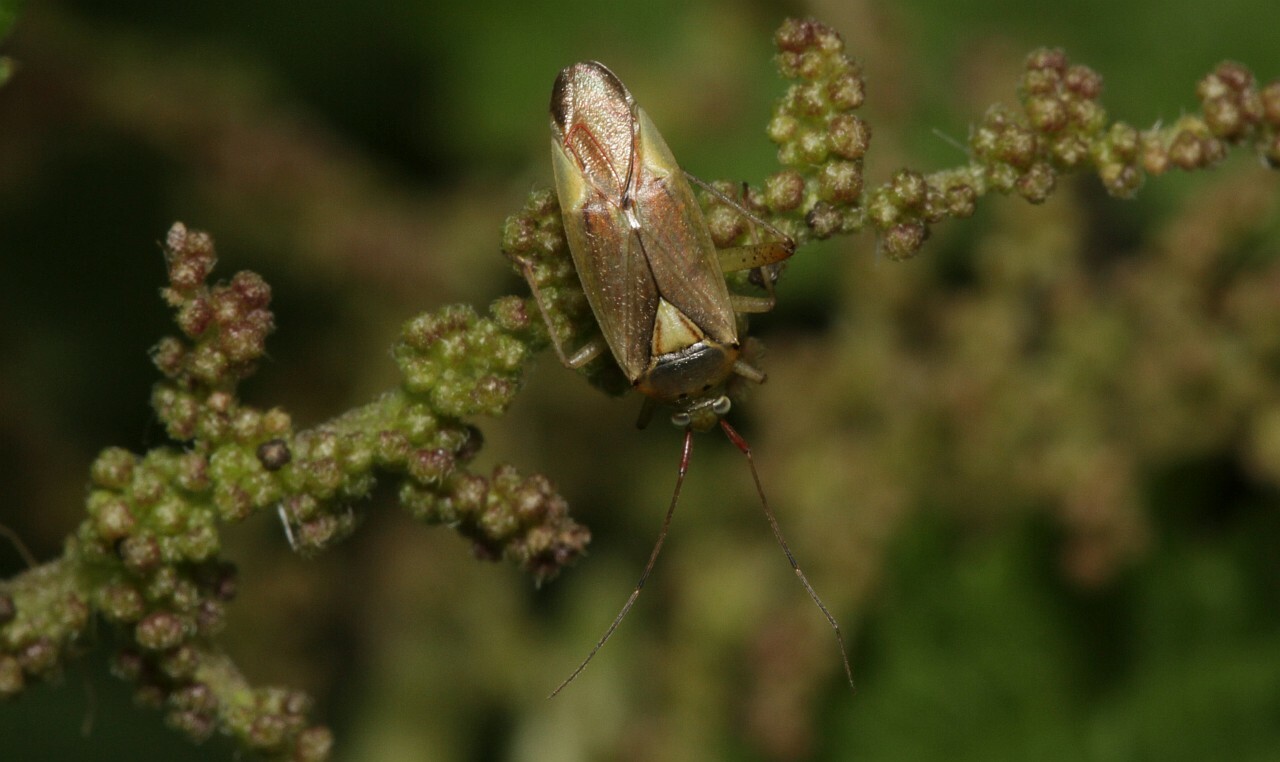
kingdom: Animalia
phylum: Arthropoda
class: Insecta
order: Hemiptera
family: Miridae
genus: Closterotomus
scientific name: Closterotomus trivialis
